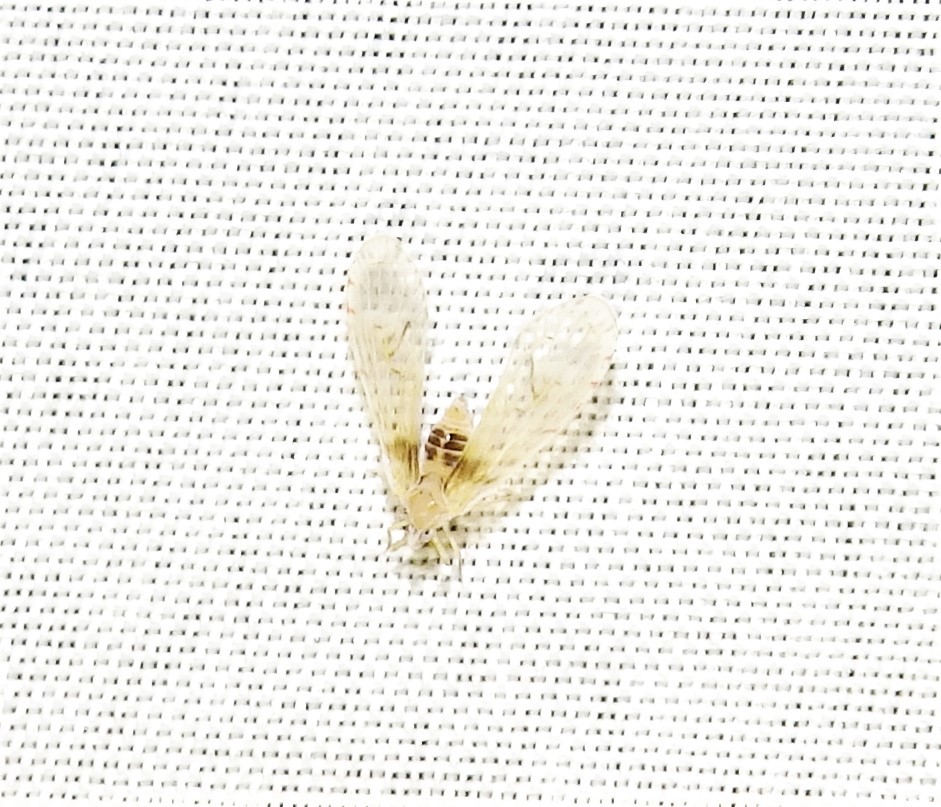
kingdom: Animalia
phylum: Arthropoda
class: Insecta
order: Hemiptera
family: Derbidae
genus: Anotia
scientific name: Anotia burnetii
